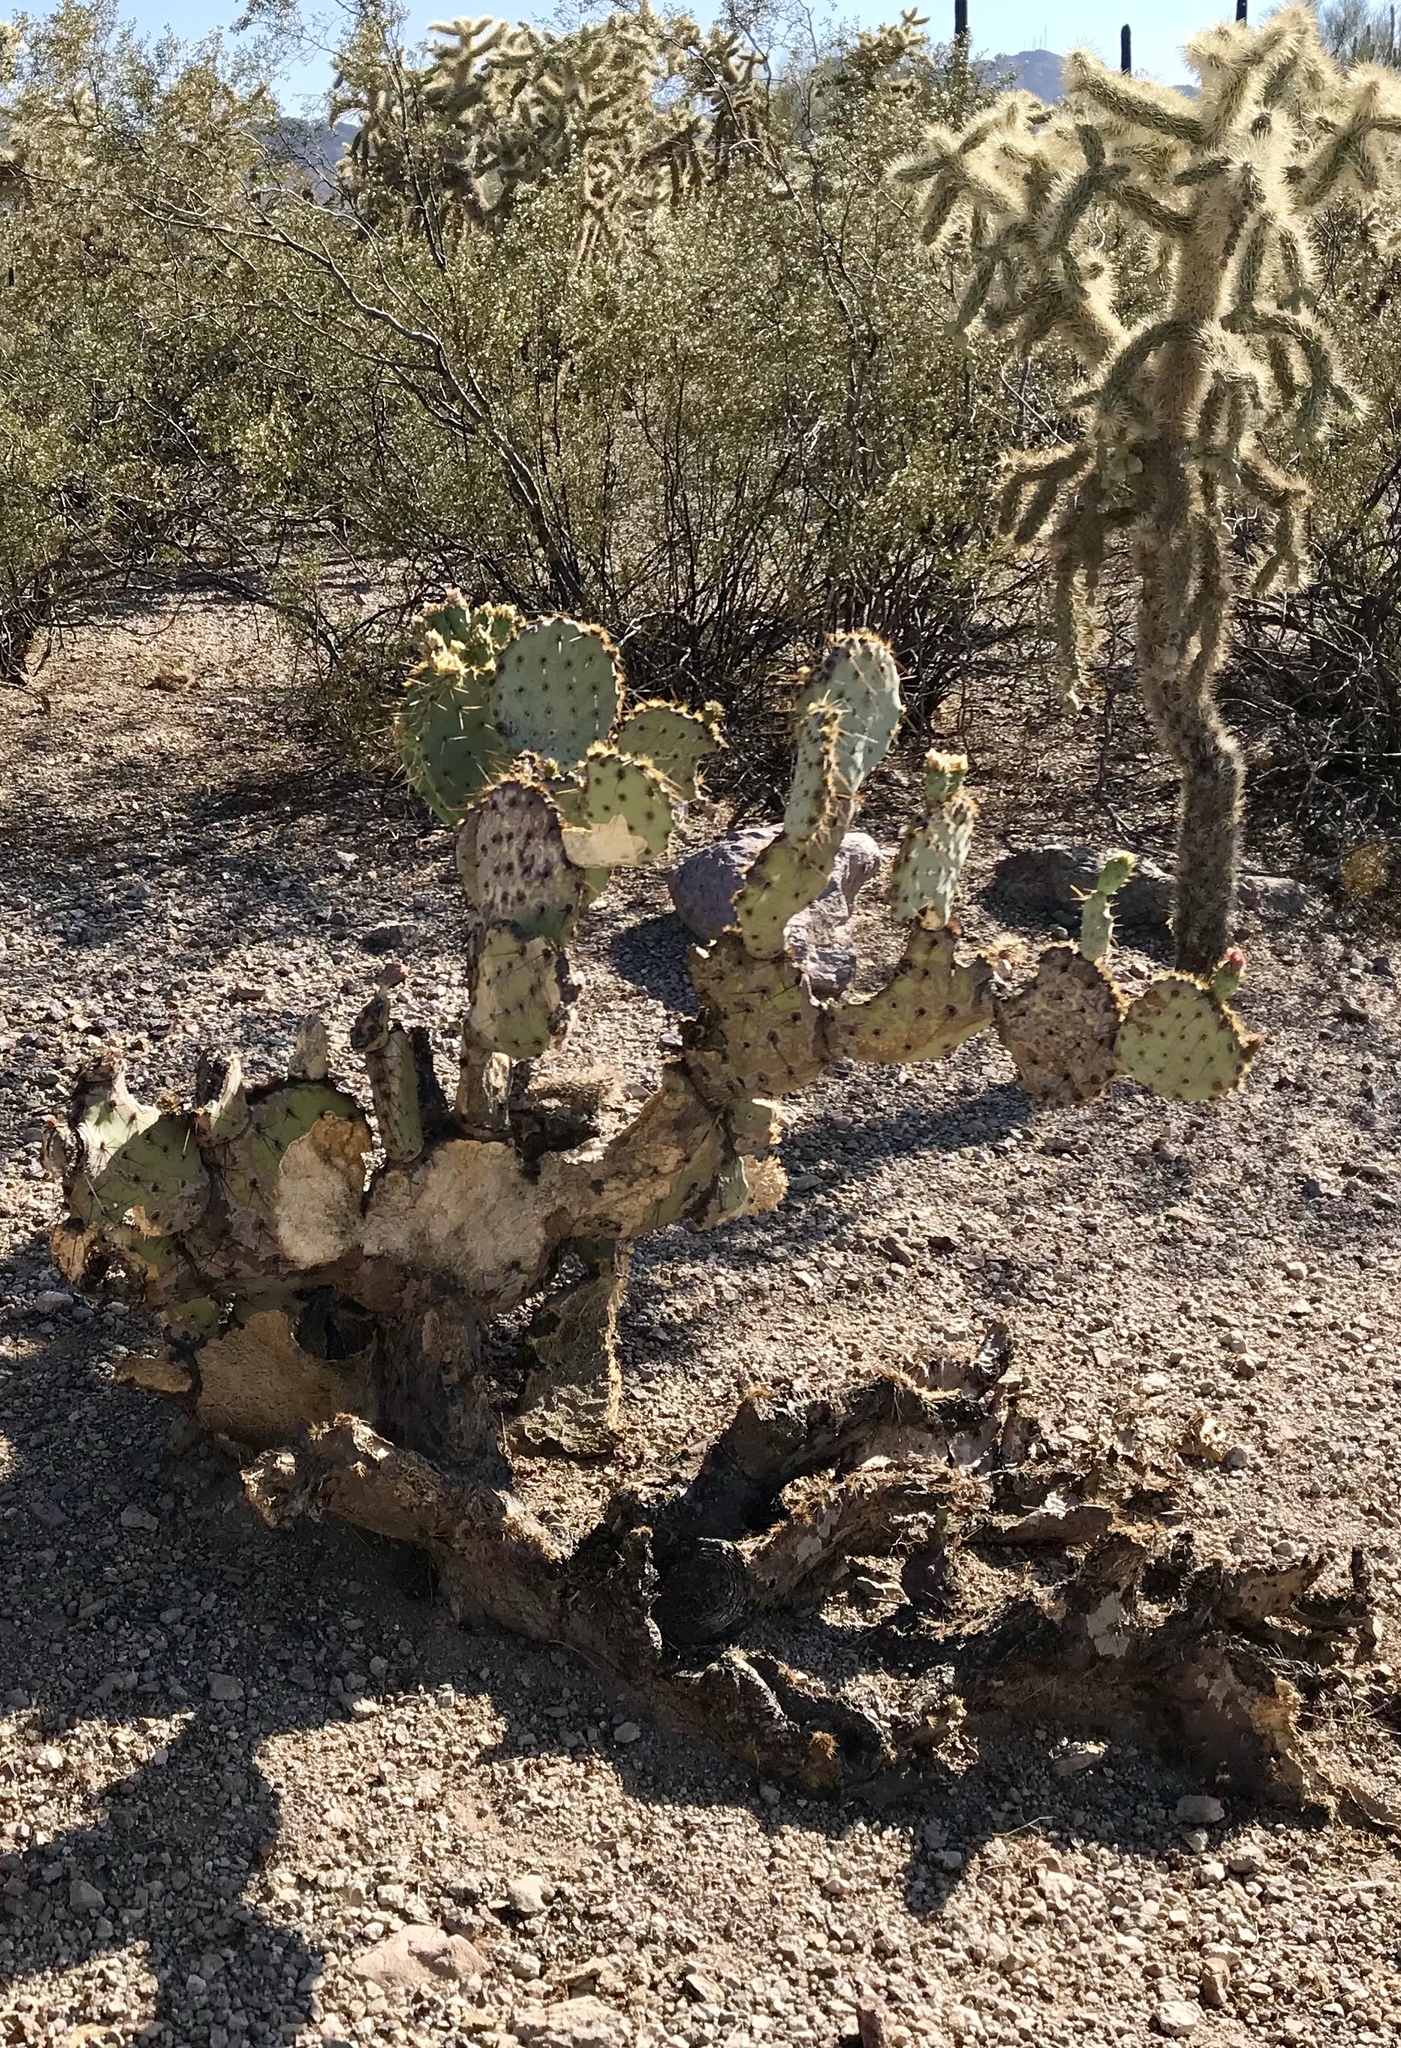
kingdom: Plantae
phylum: Tracheophyta
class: Magnoliopsida
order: Caryophyllales
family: Cactaceae
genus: Opuntia
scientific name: Opuntia engelmannii
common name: Cactus-apple
